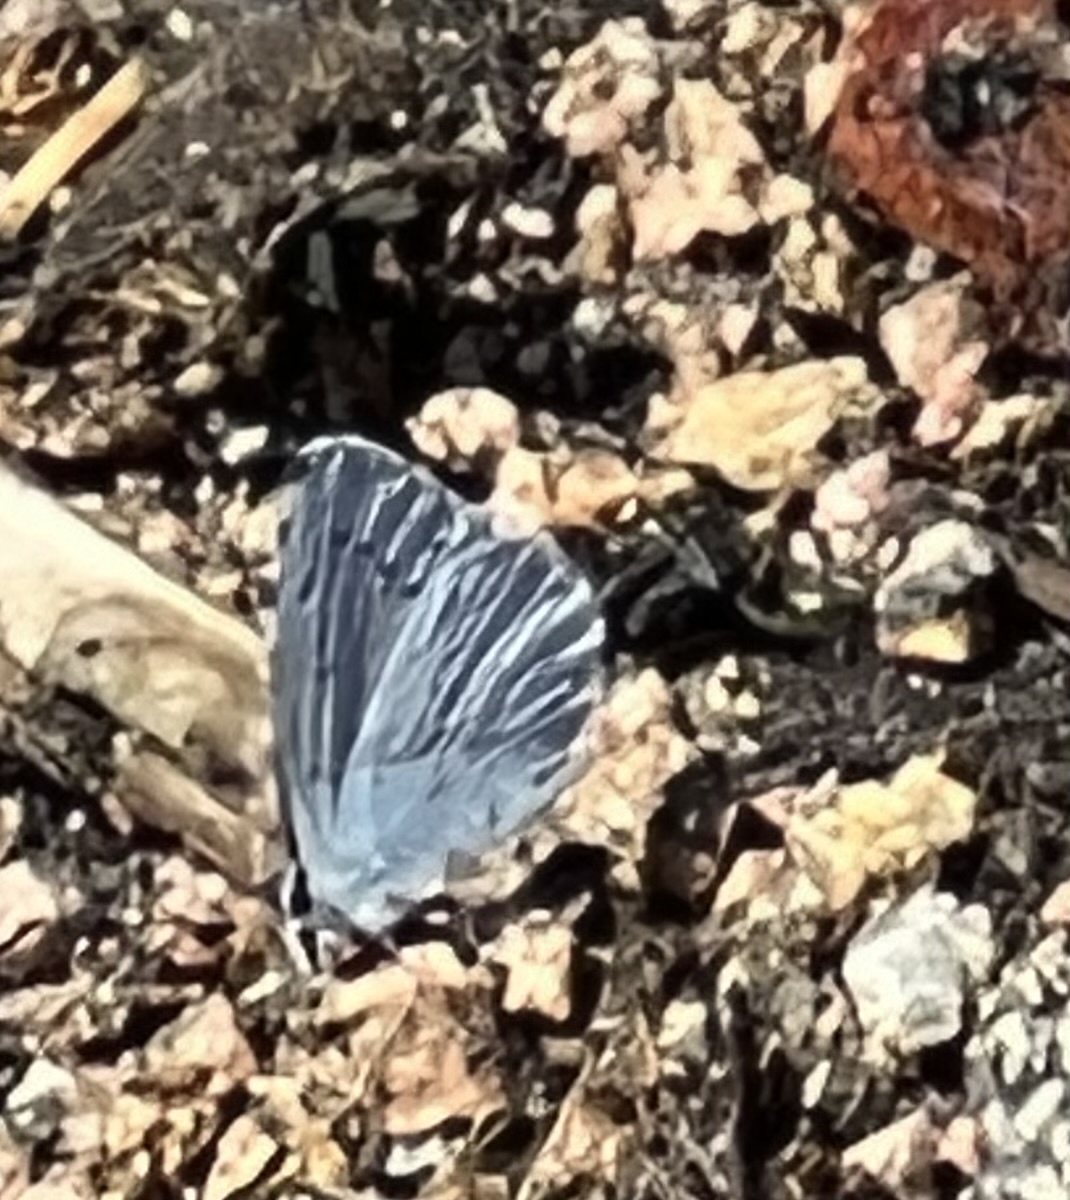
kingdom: Animalia
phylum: Arthropoda
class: Insecta
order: Lepidoptera
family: Lycaenidae
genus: Celastrina
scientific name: Celastrina argiolus
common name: Holly blue
